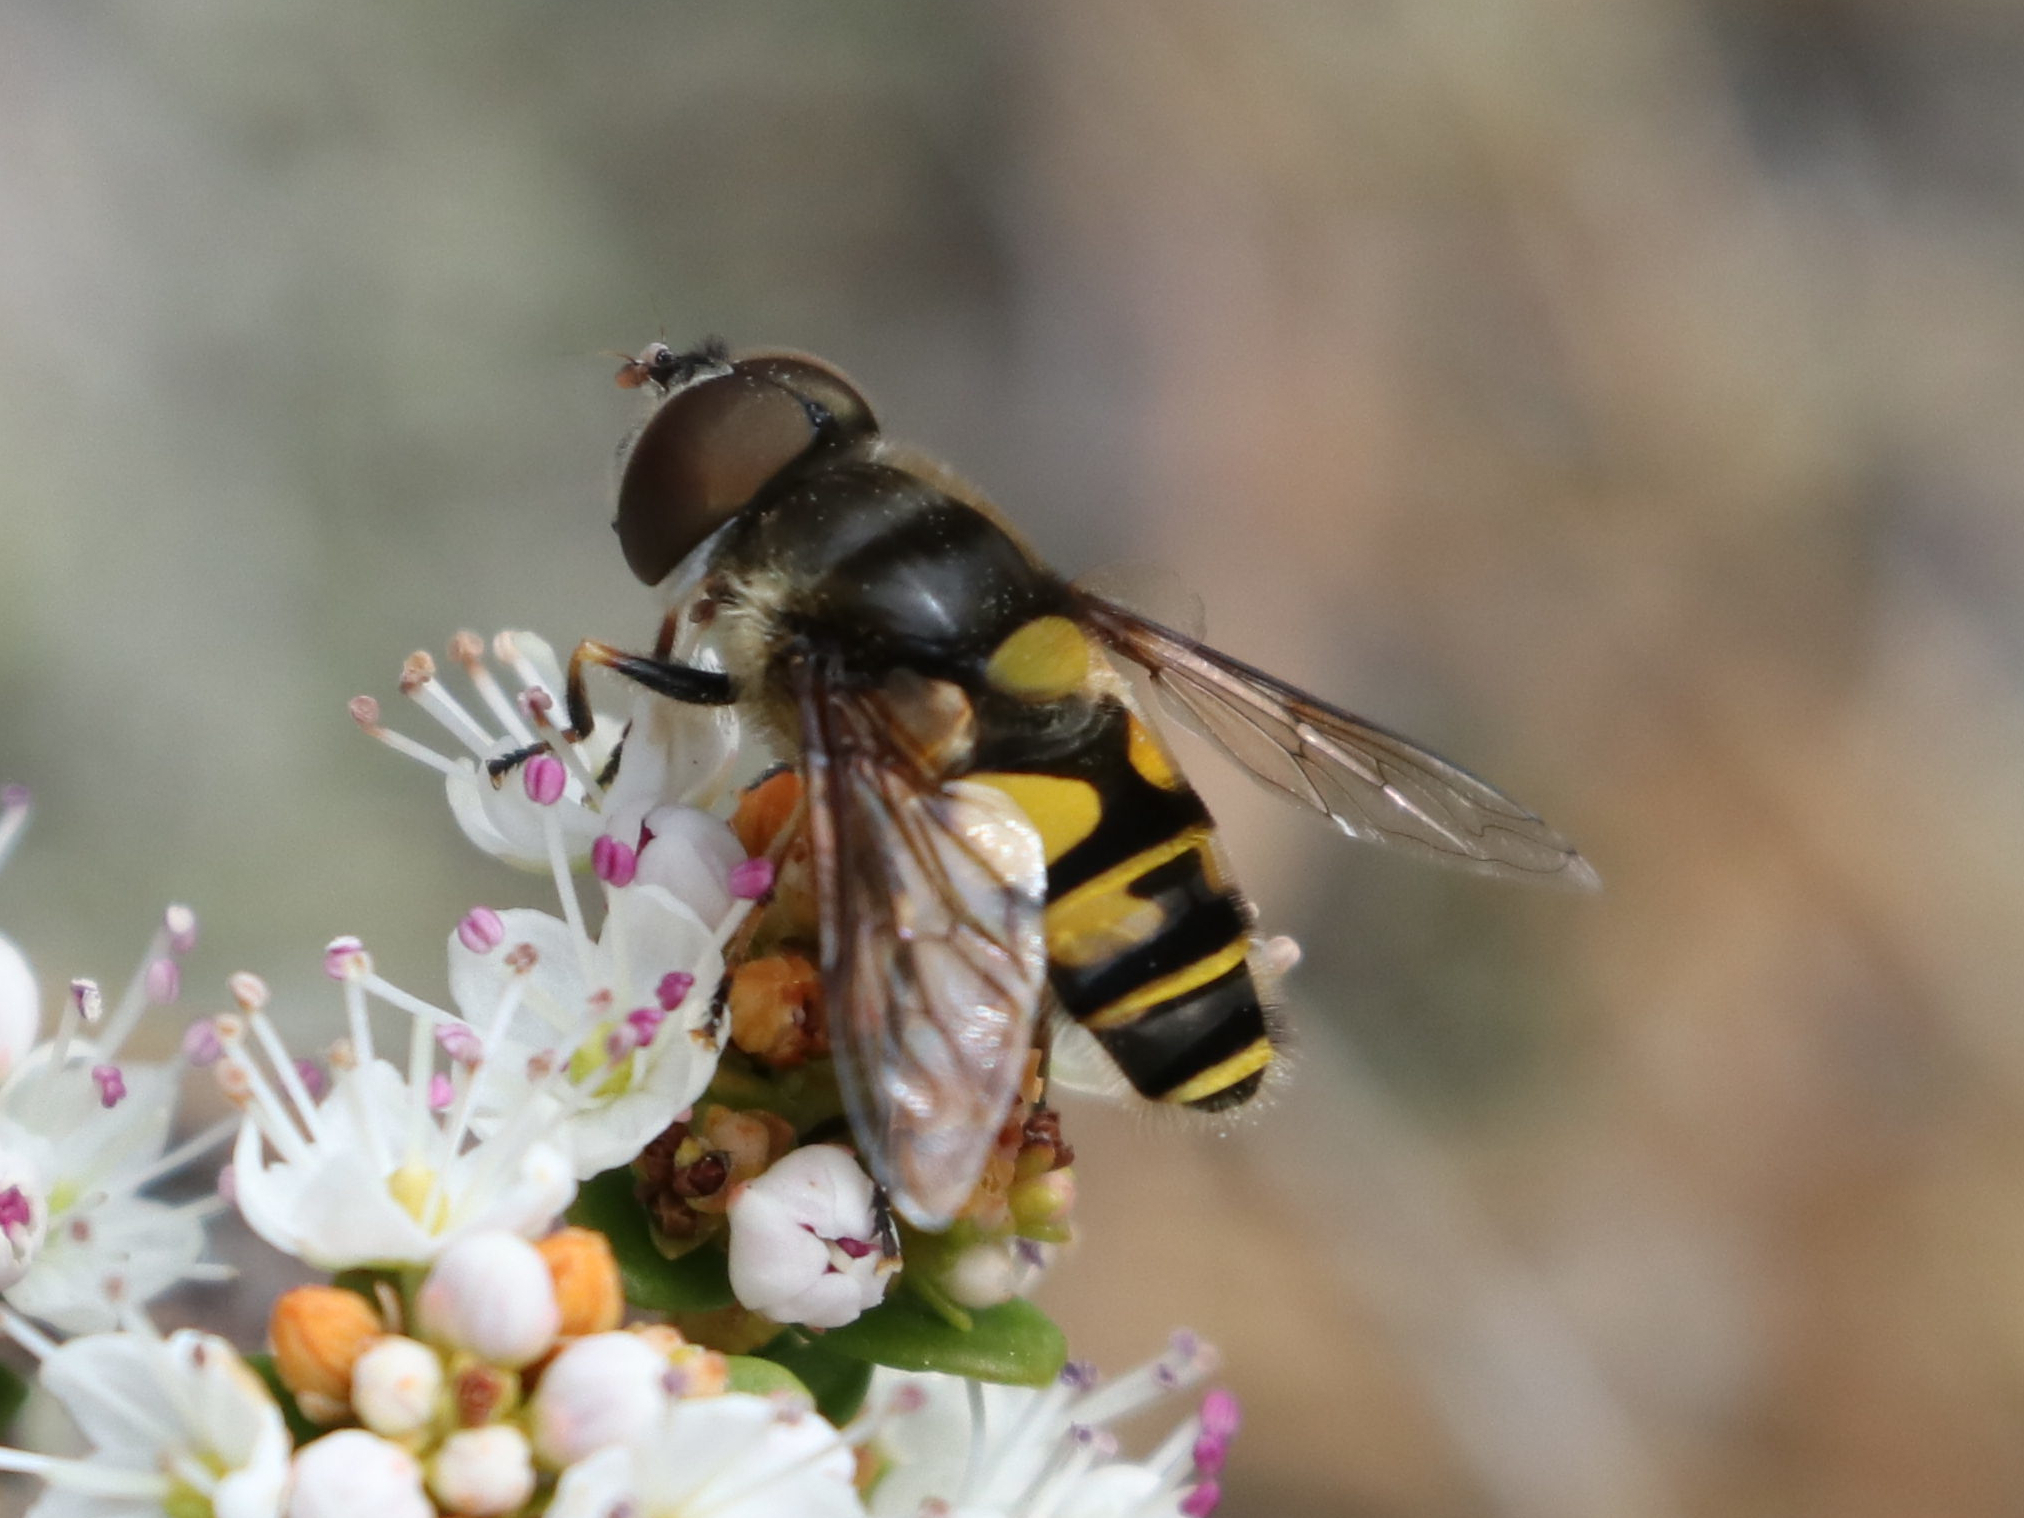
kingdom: Animalia
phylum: Arthropoda
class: Insecta
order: Diptera
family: Syrphidae
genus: Eristalis
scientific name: Eristalis transversa
